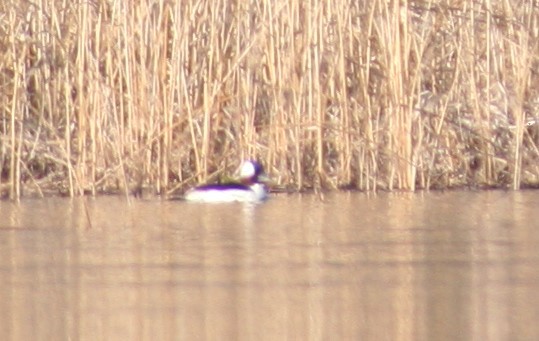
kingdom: Animalia
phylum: Chordata
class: Aves
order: Anseriformes
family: Anatidae
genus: Bucephala
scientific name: Bucephala albeola
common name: Bufflehead
